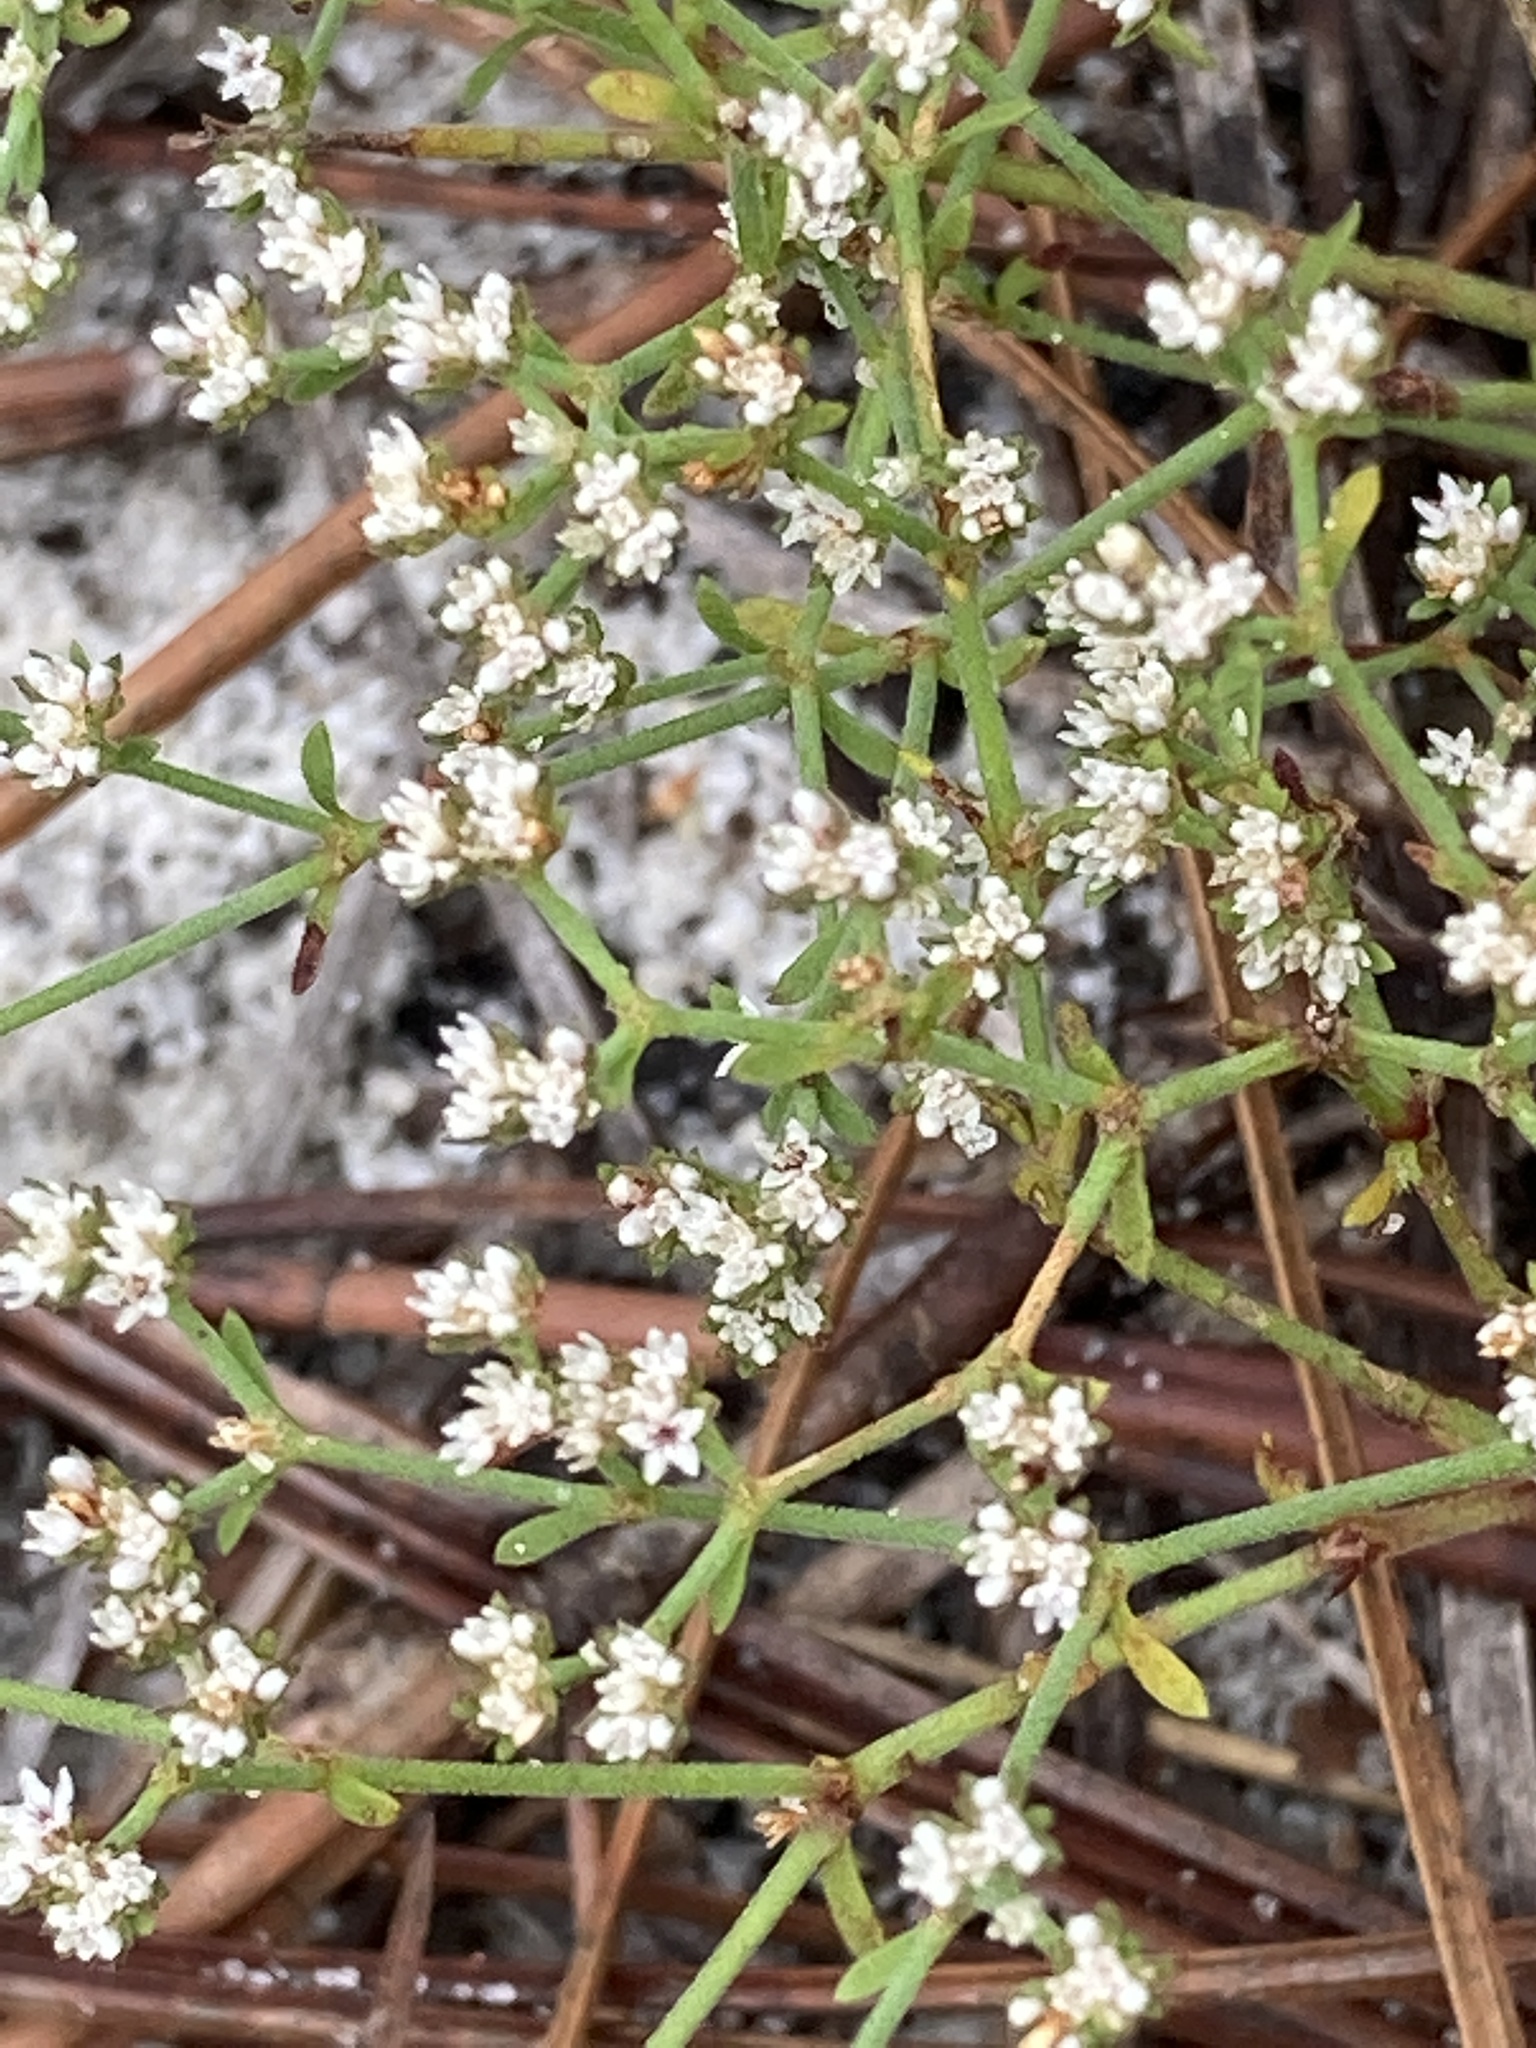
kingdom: Plantae
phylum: Tracheophyta
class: Magnoliopsida
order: Caryophyllales
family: Caryophyllaceae
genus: Paronychia
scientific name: Paronychia patula
